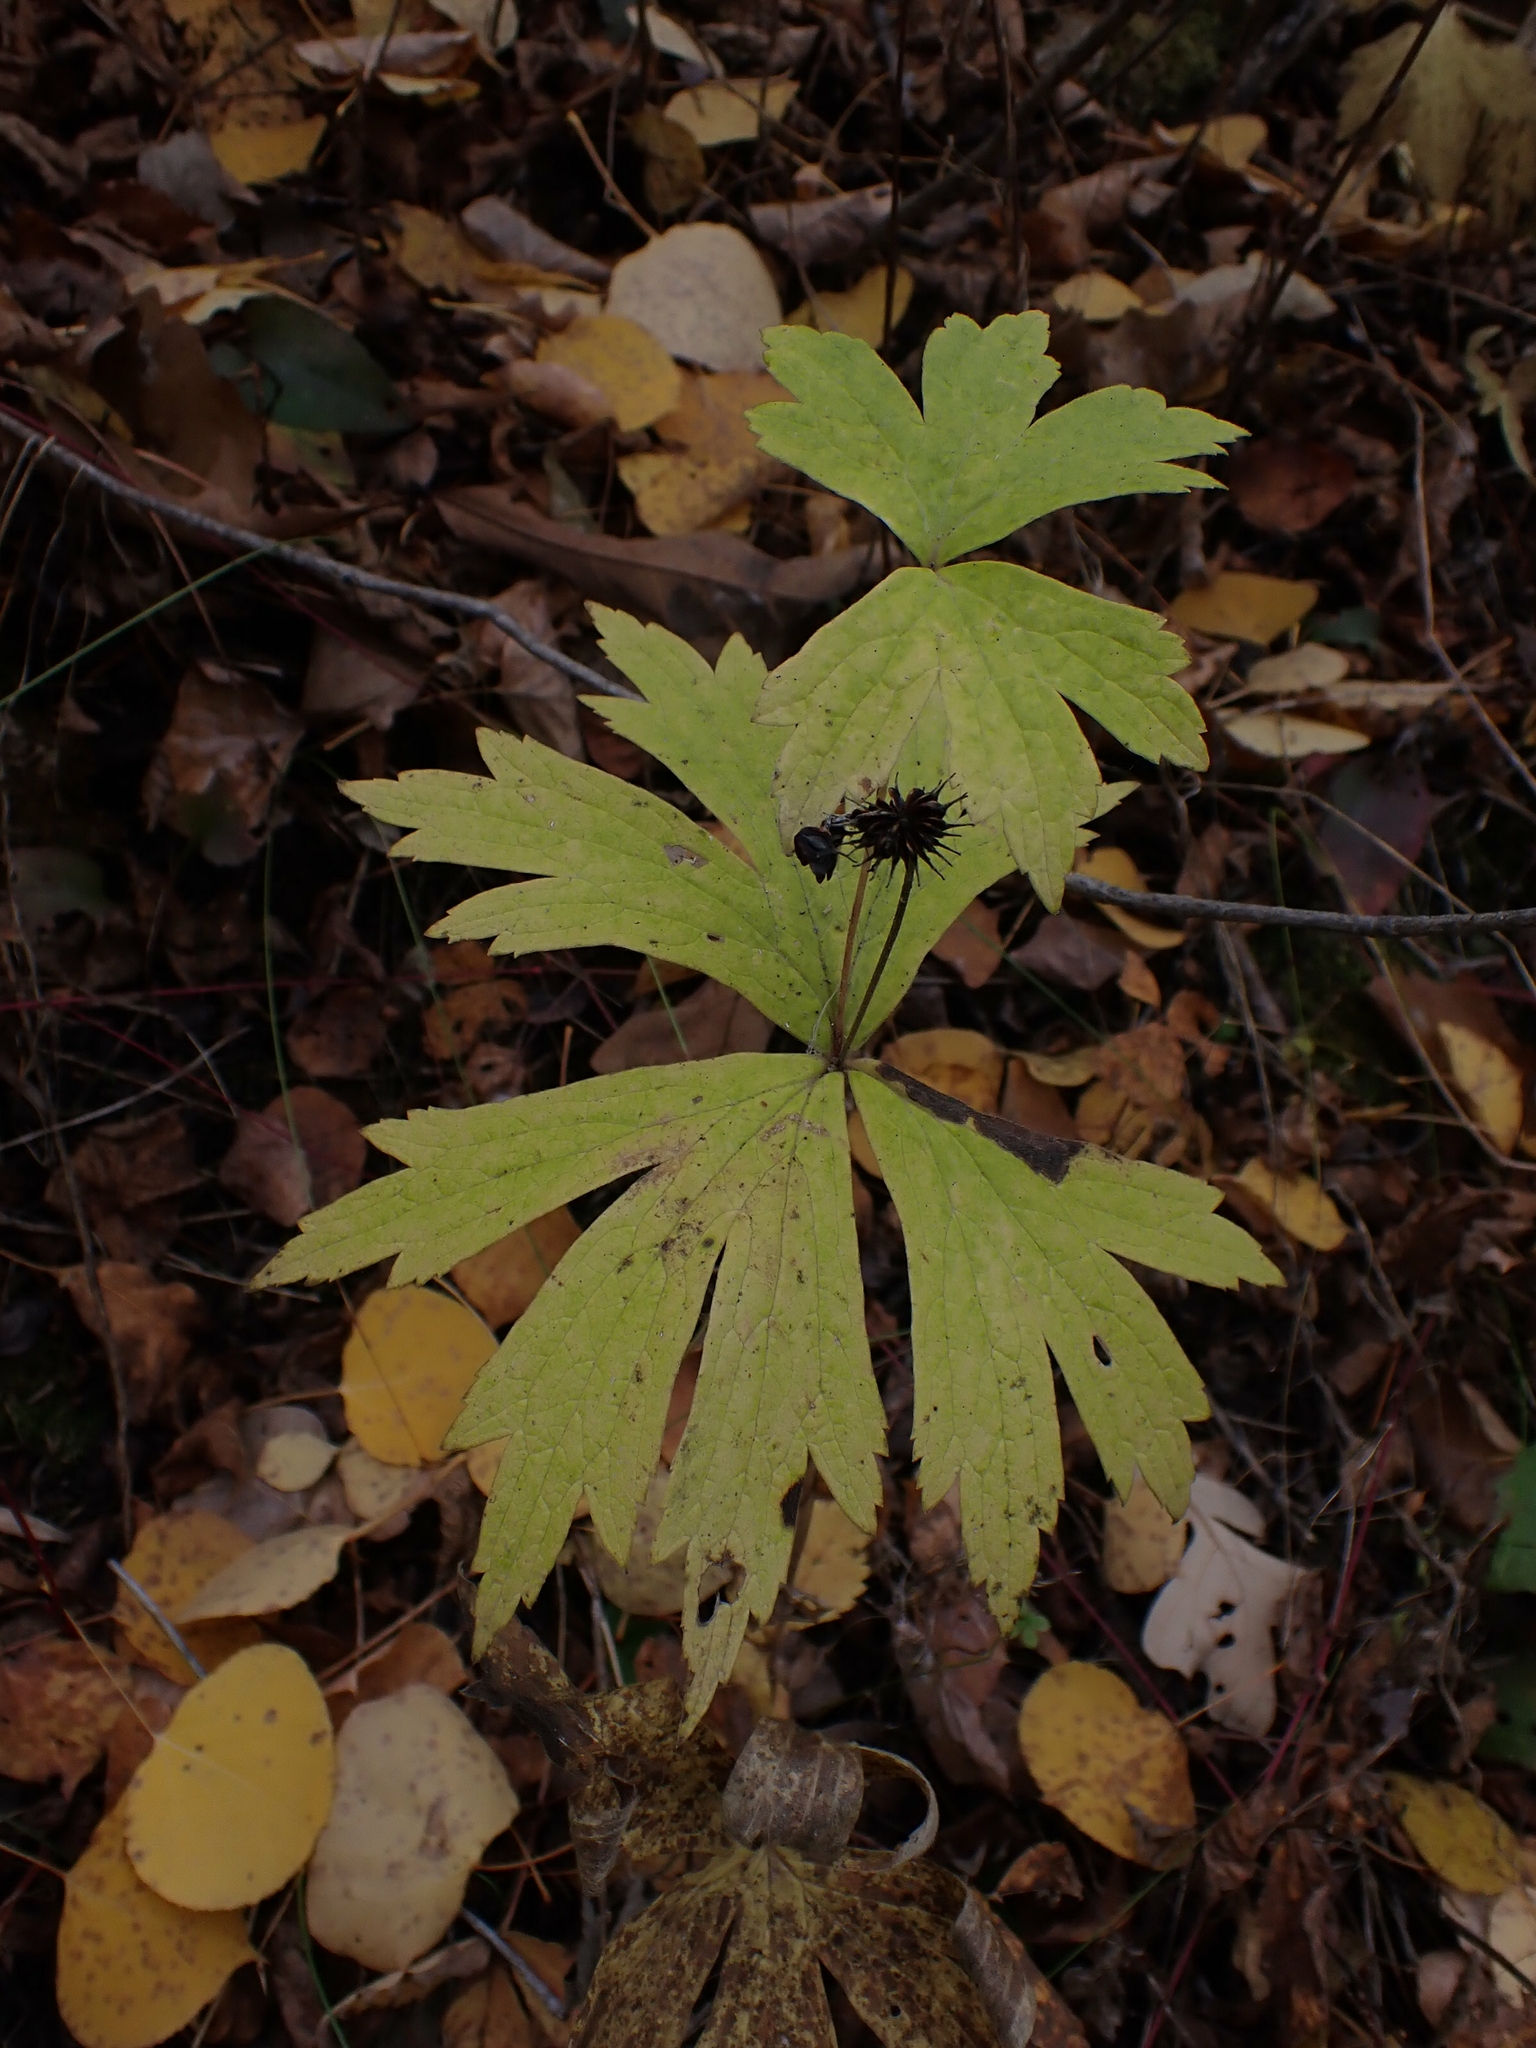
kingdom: Plantae
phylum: Tracheophyta
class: Magnoliopsida
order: Ranunculales
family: Ranunculaceae
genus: Anemonastrum
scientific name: Anemonastrum canadense
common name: Canada anemone
